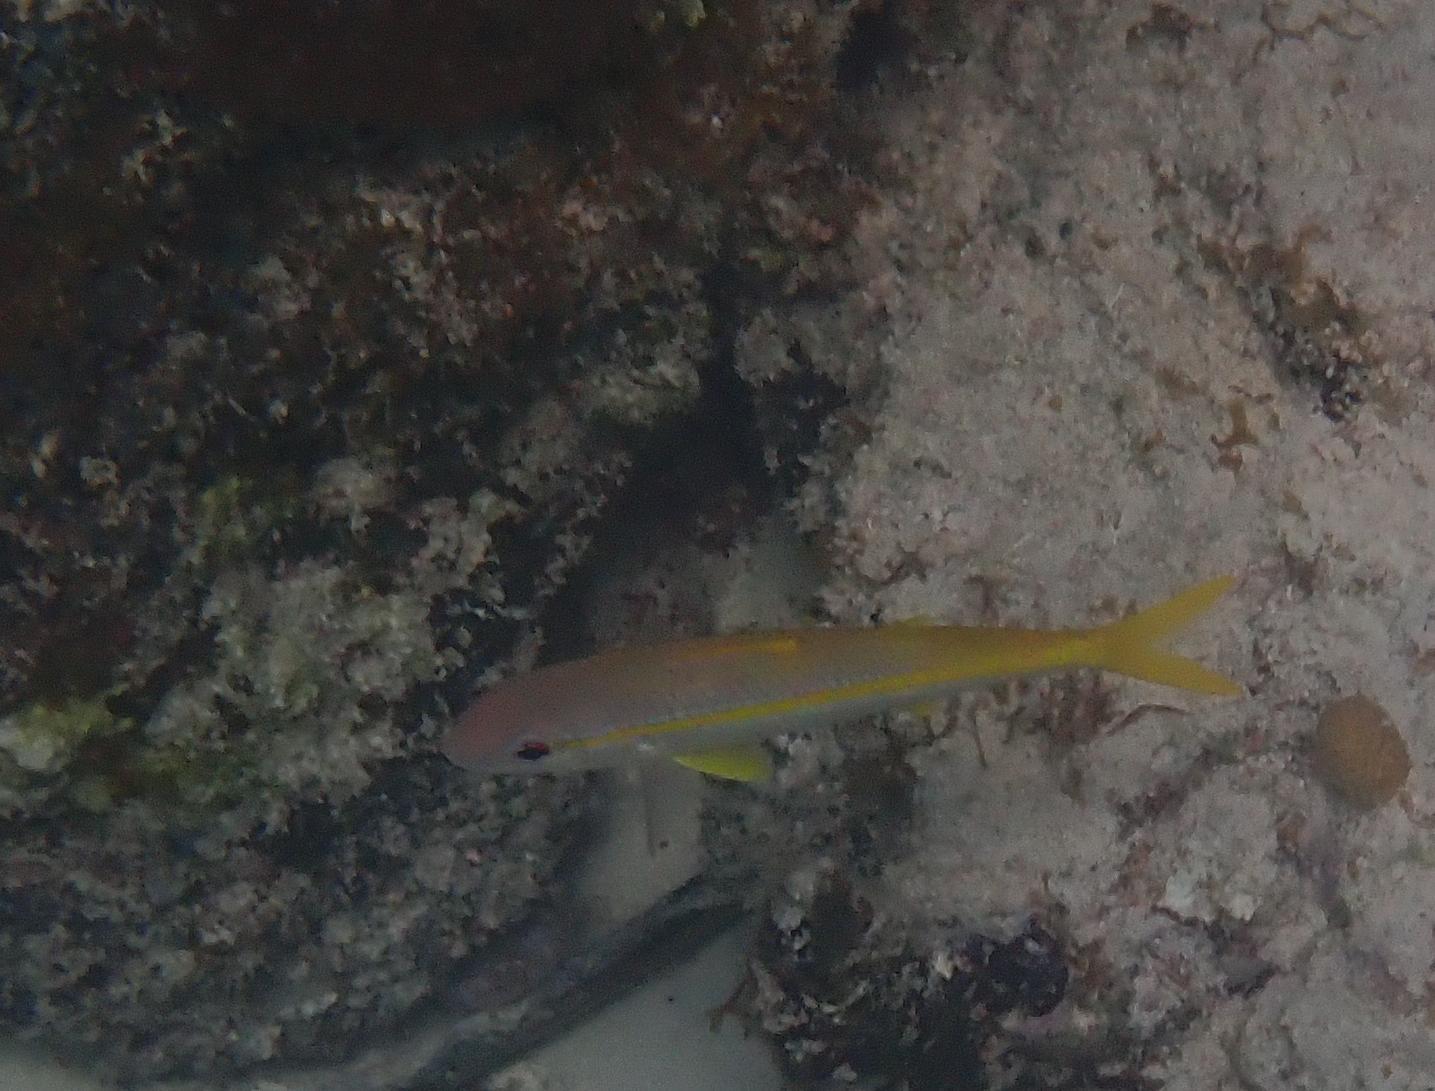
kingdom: Animalia
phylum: Chordata
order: Perciformes
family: Mullidae
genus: Mulloidichthys
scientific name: Mulloidichthys martinicus
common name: Yellow goatfish
